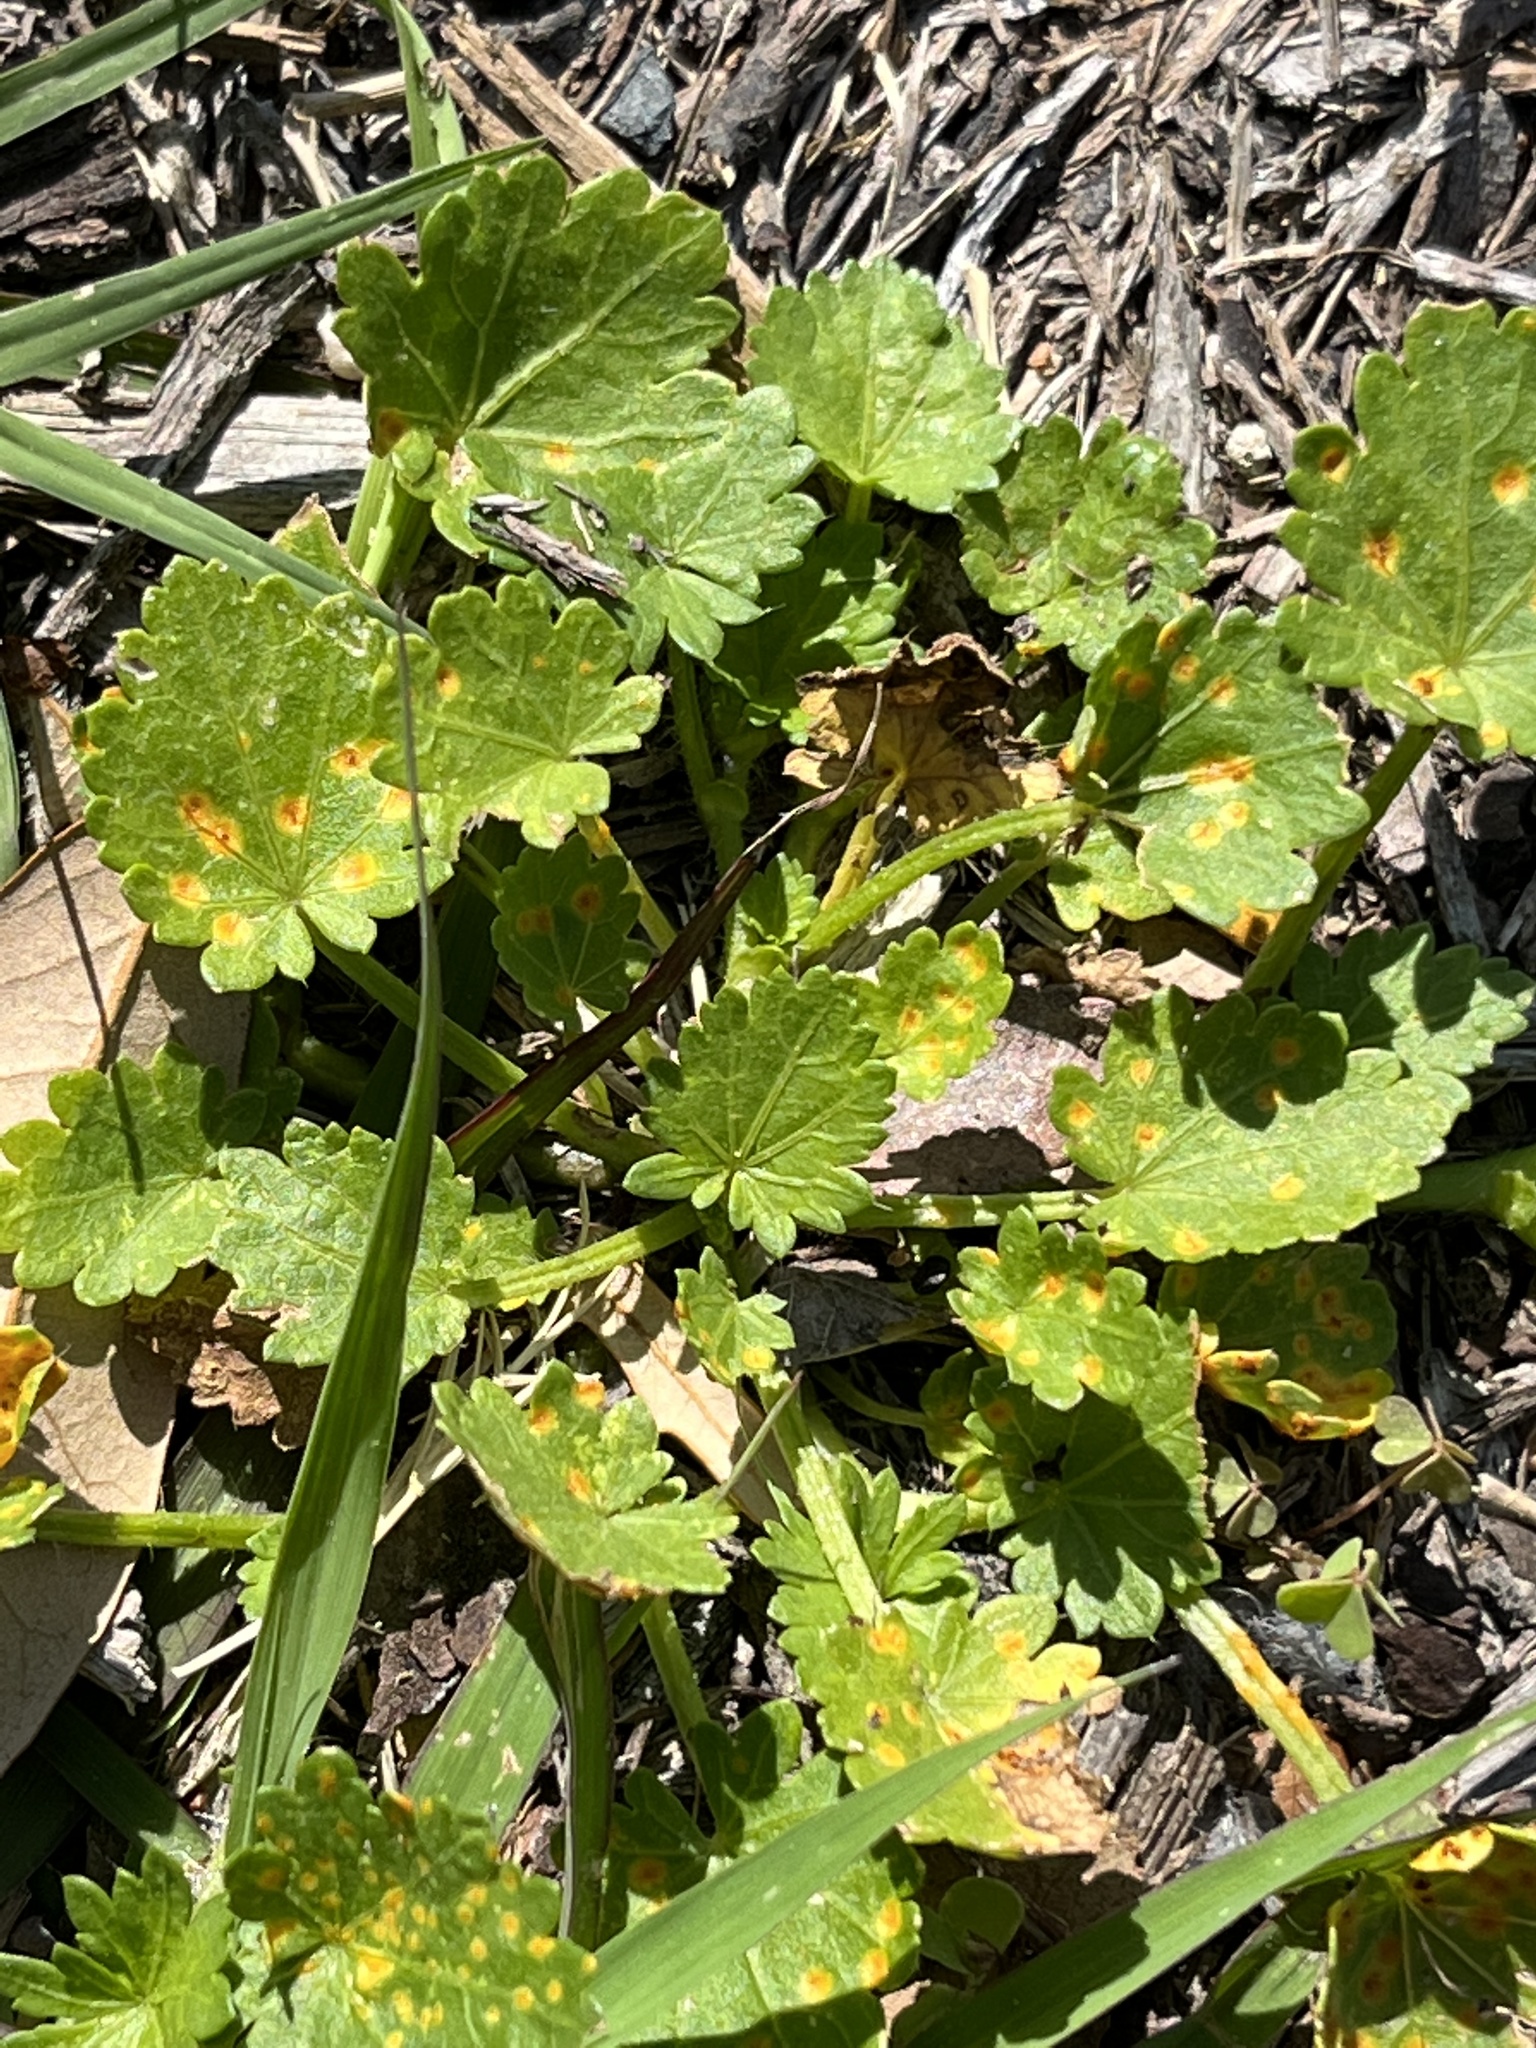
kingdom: Plantae
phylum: Tracheophyta
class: Magnoliopsida
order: Malvales
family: Malvaceae
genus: Modiola
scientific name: Modiola caroliniana
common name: Carolina bristlemallow
